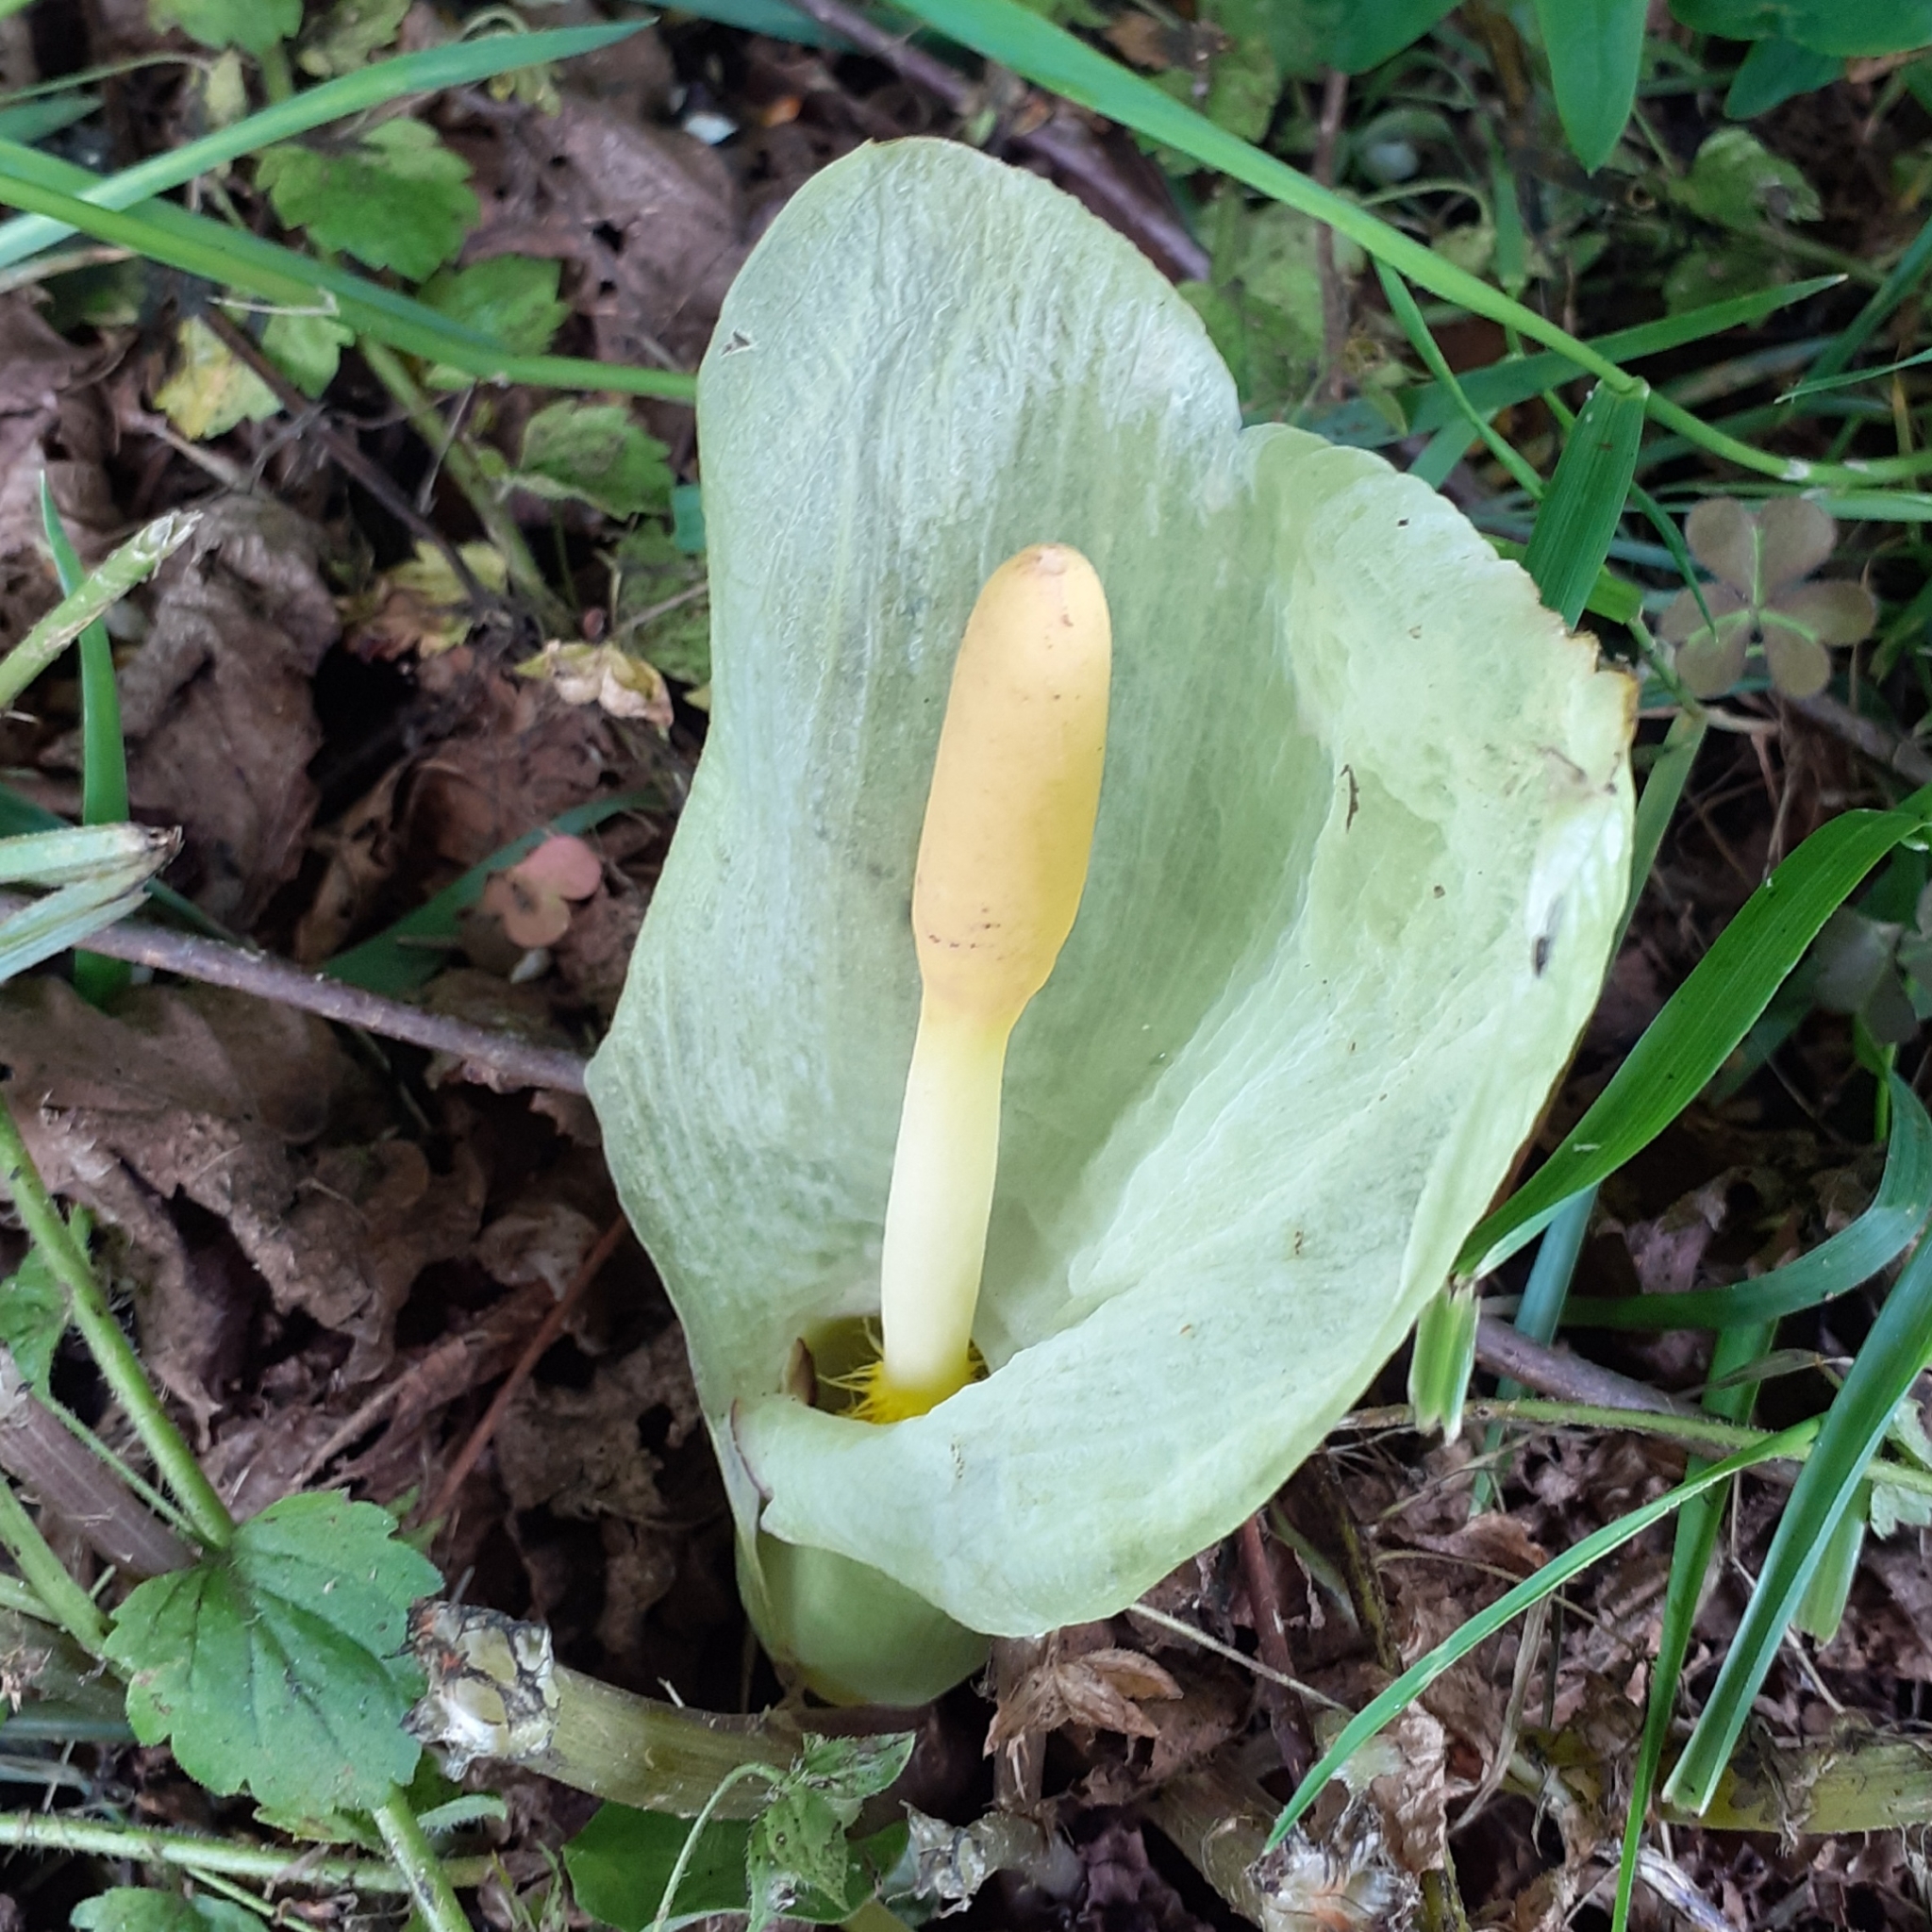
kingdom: Plantae
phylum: Tracheophyta
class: Liliopsida
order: Alismatales
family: Araceae
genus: Arum
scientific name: Arum italicum
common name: Italian lords-and-ladies
